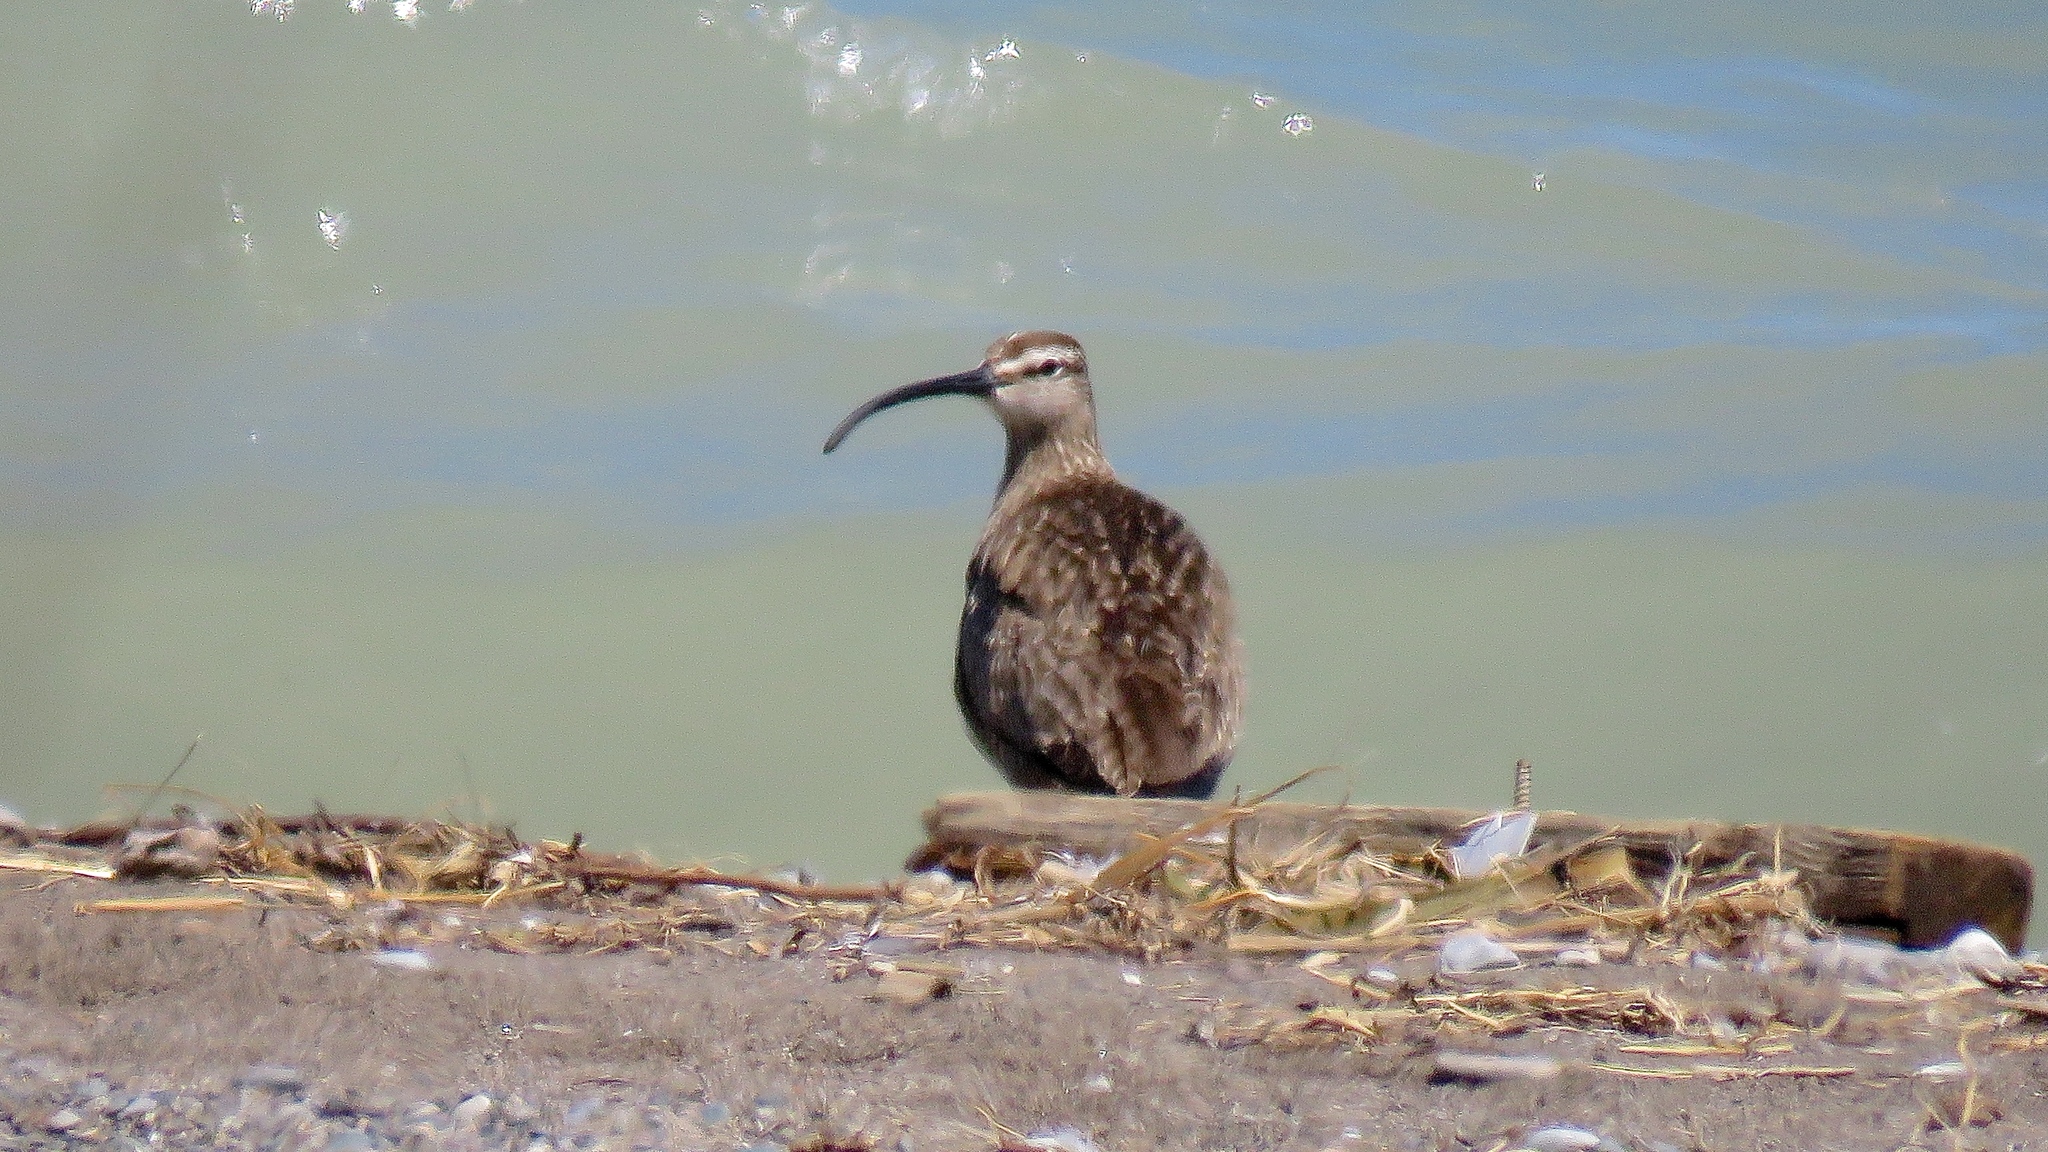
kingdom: Animalia
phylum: Chordata
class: Aves
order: Charadriiformes
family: Scolopacidae
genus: Numenius
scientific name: Numenius phaeopus
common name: Whimbrel
